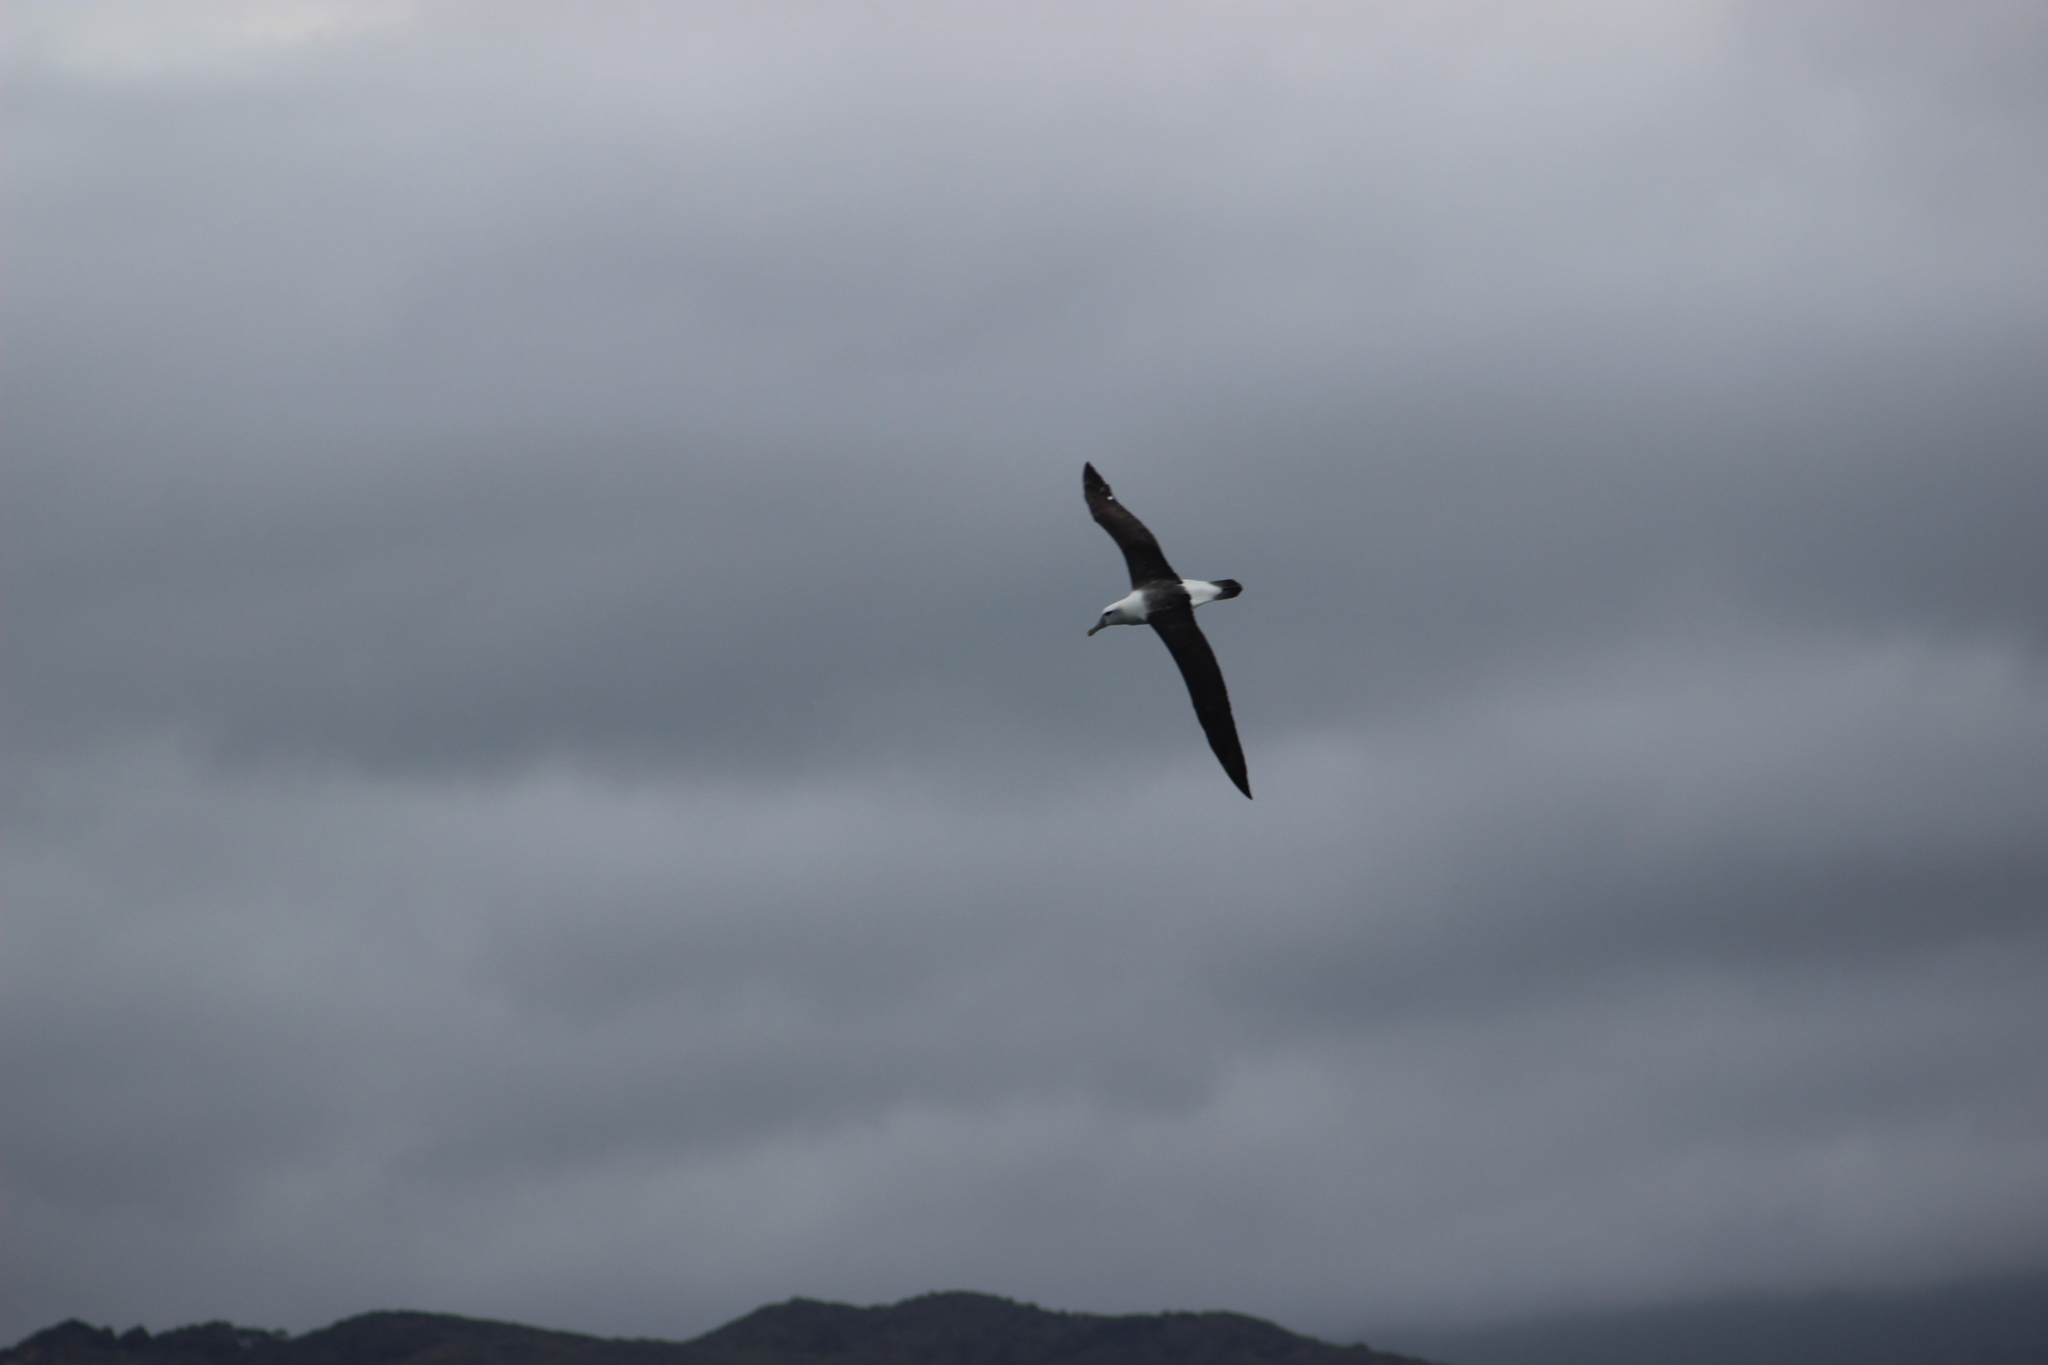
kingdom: Animalia
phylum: Chordata
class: Aves
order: Procellariiformes
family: Diomedeidae
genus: Thalassarche
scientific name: Thalassarche cauta
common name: Shy albatross
